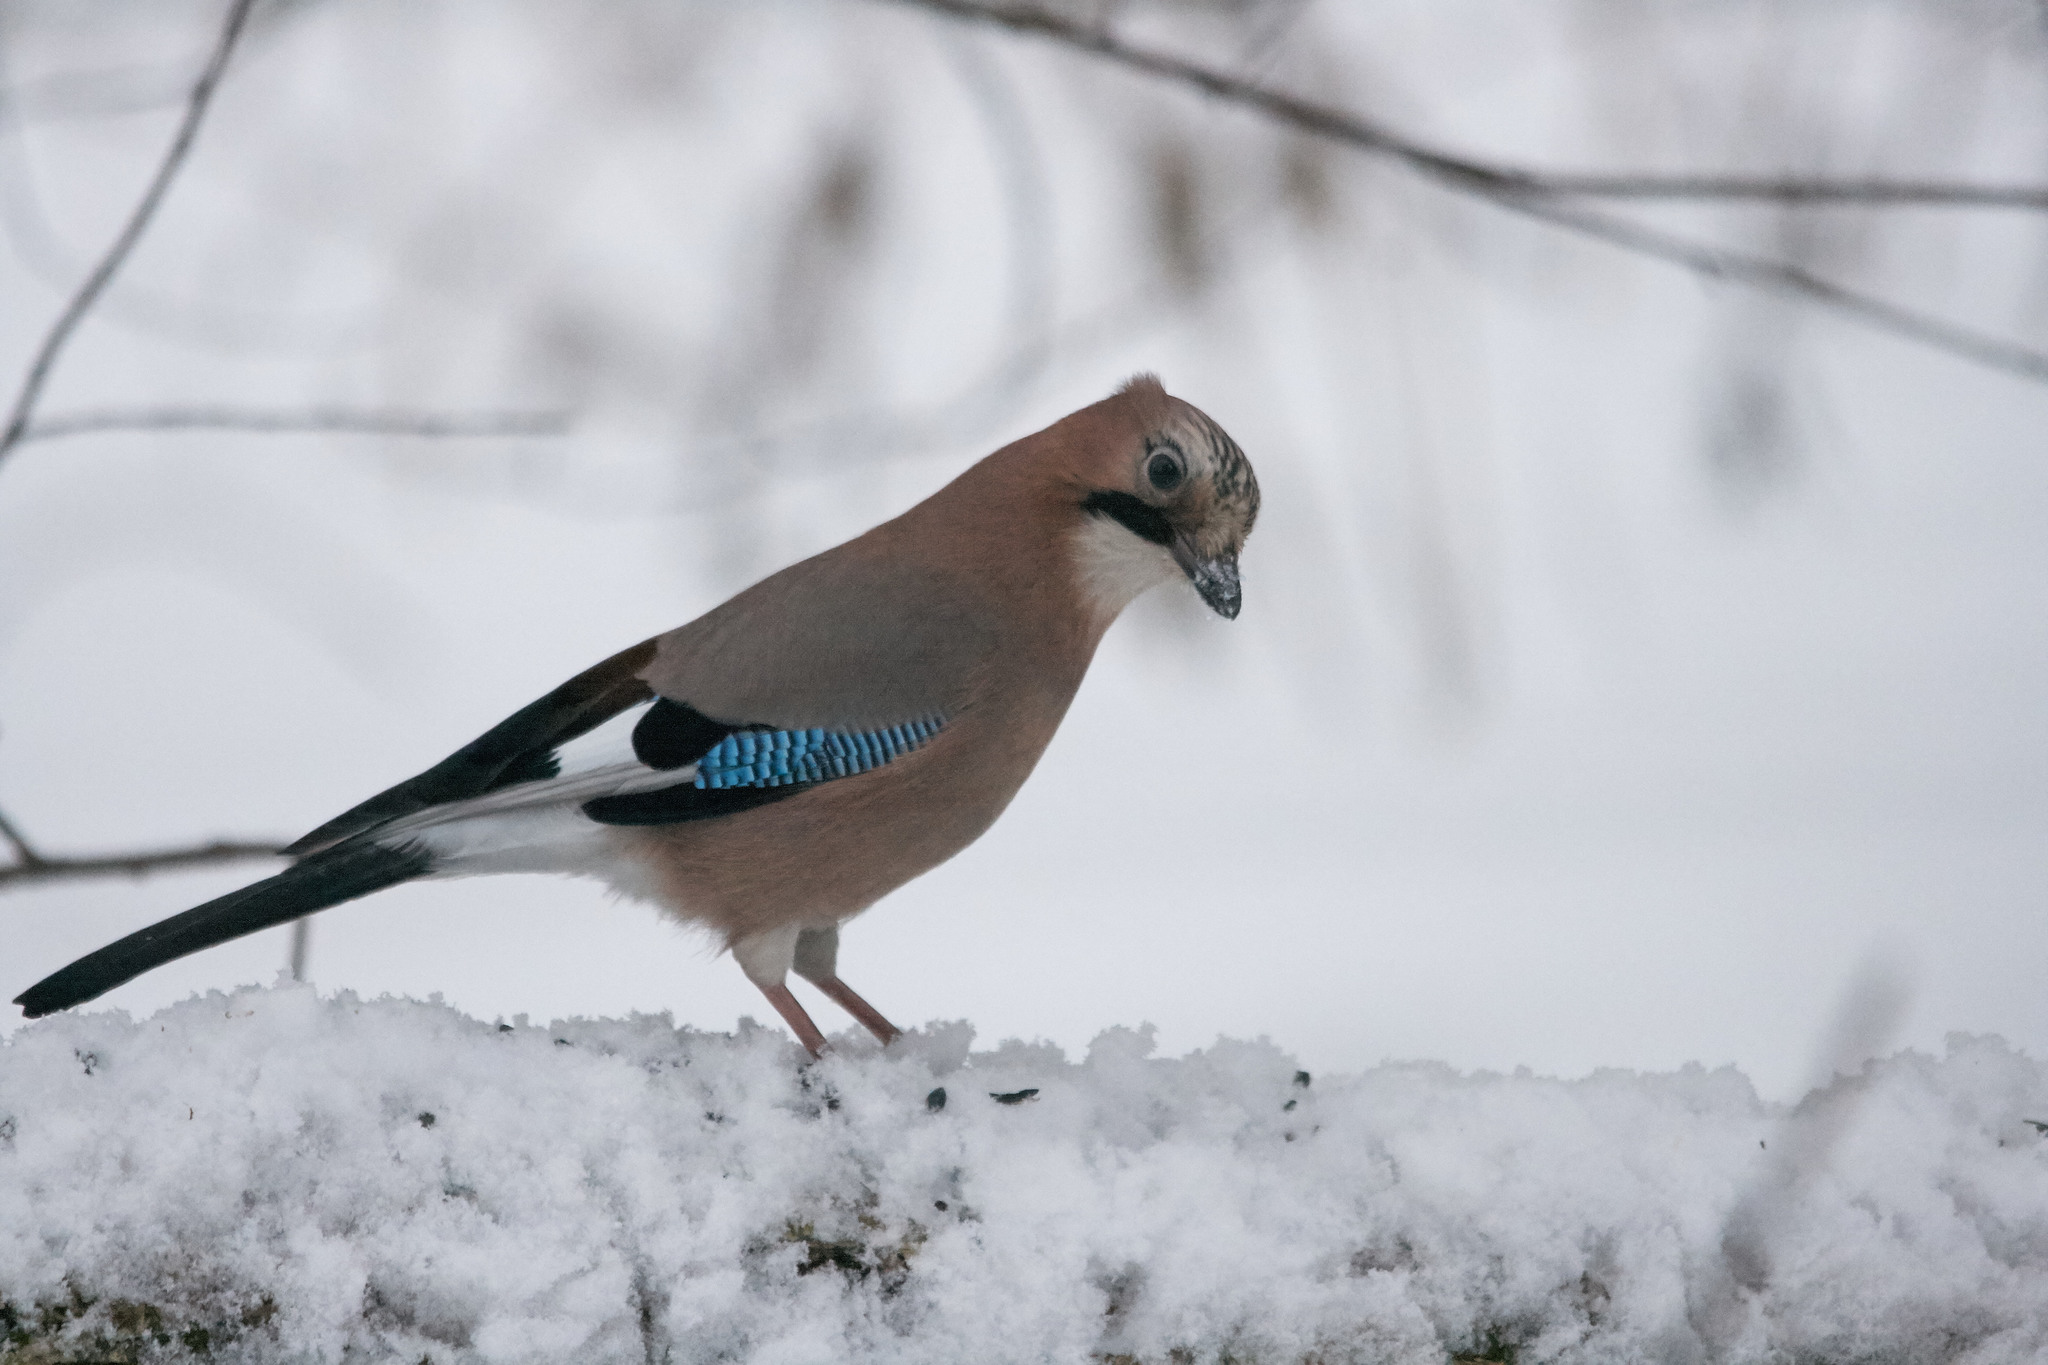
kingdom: Animalia
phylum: Chordata
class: Aves
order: Passeriformes
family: Corvidae
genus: Garrulus
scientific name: Garrulus glandarius
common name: Eurasian jay
